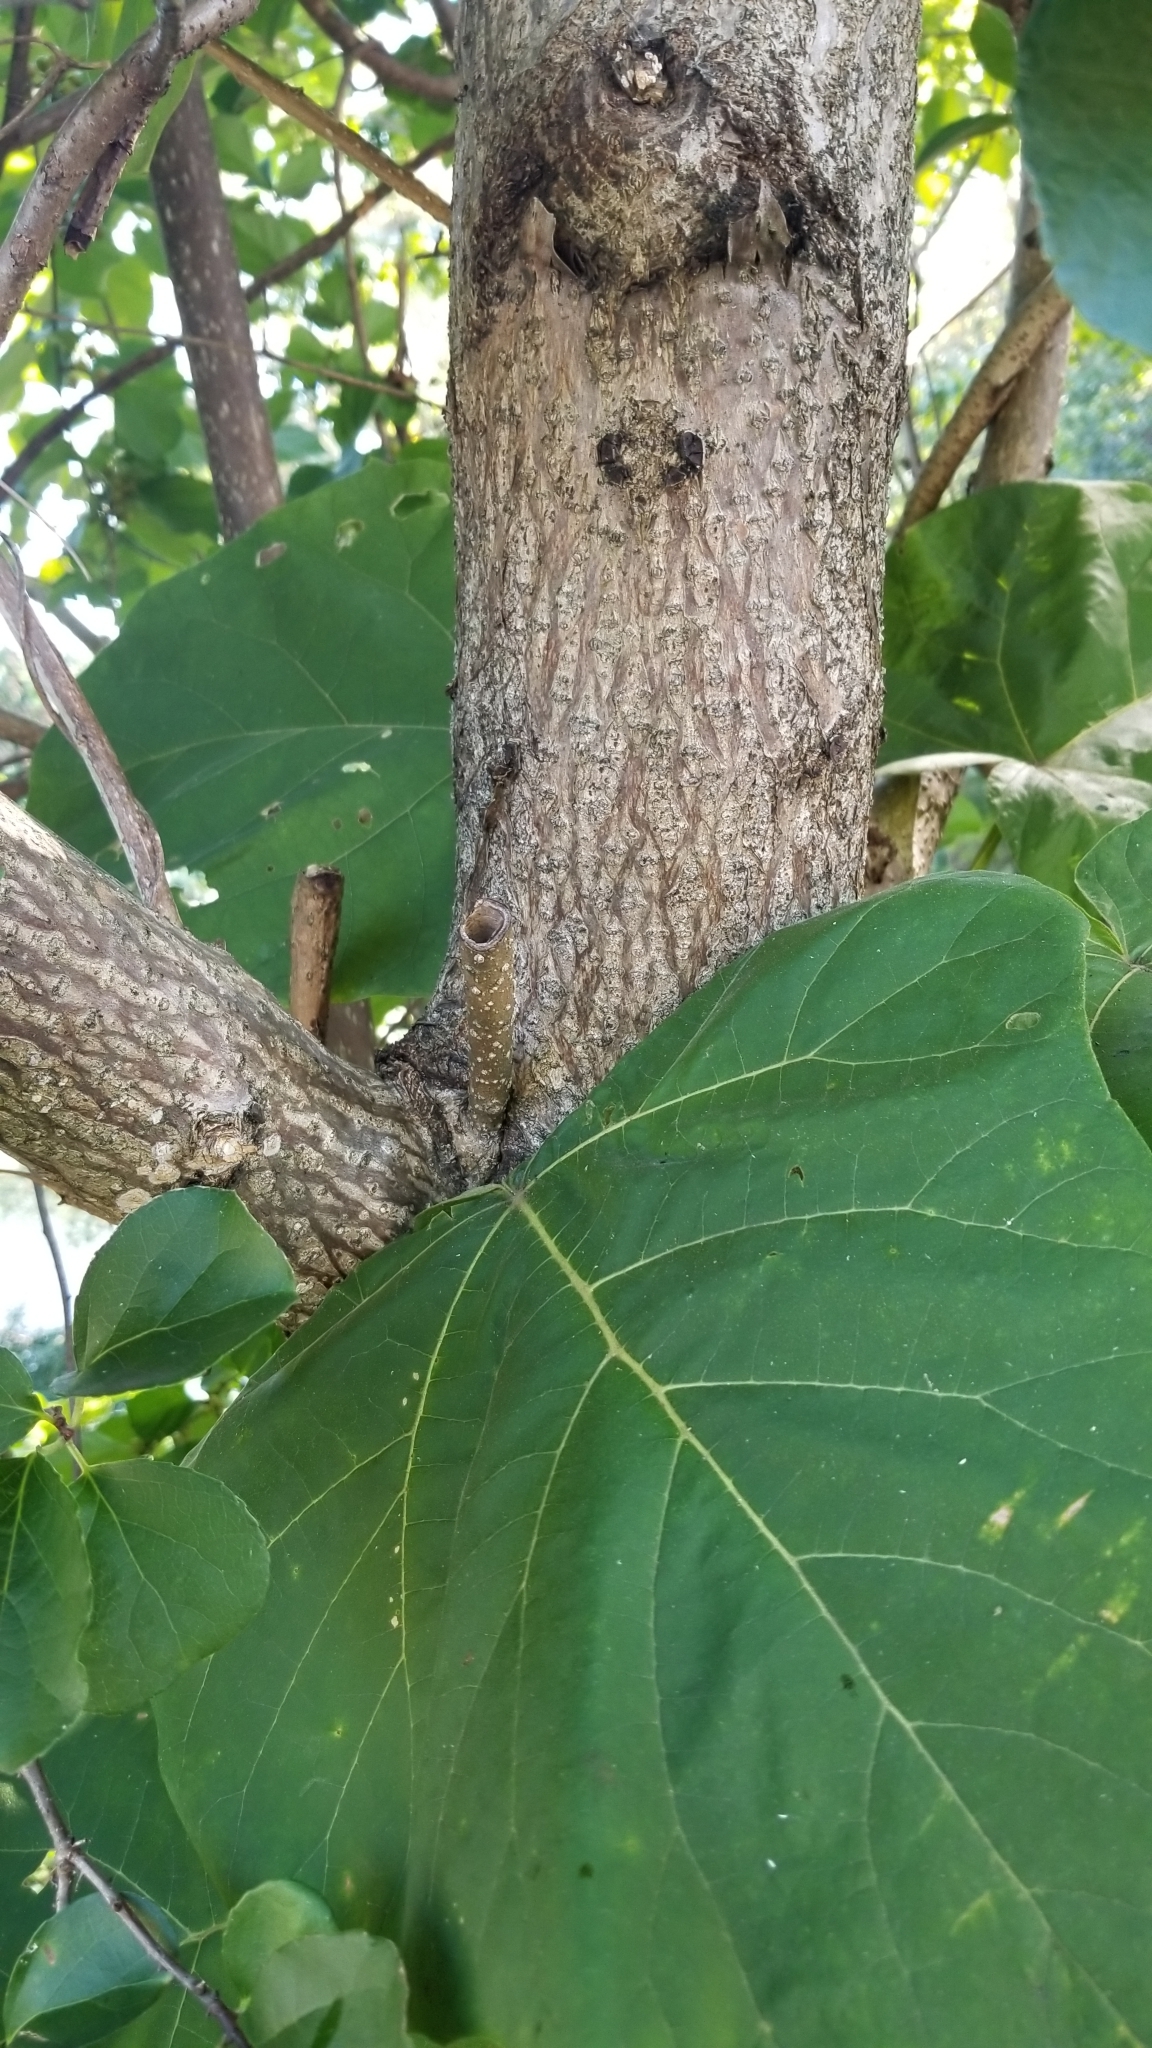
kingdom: Plantae
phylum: Tracheophyta
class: Magnoliopsida
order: Lamiales
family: Paulowniaceae
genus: Paulownia
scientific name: Paulownia tomentosa
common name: Foxglove-tree
